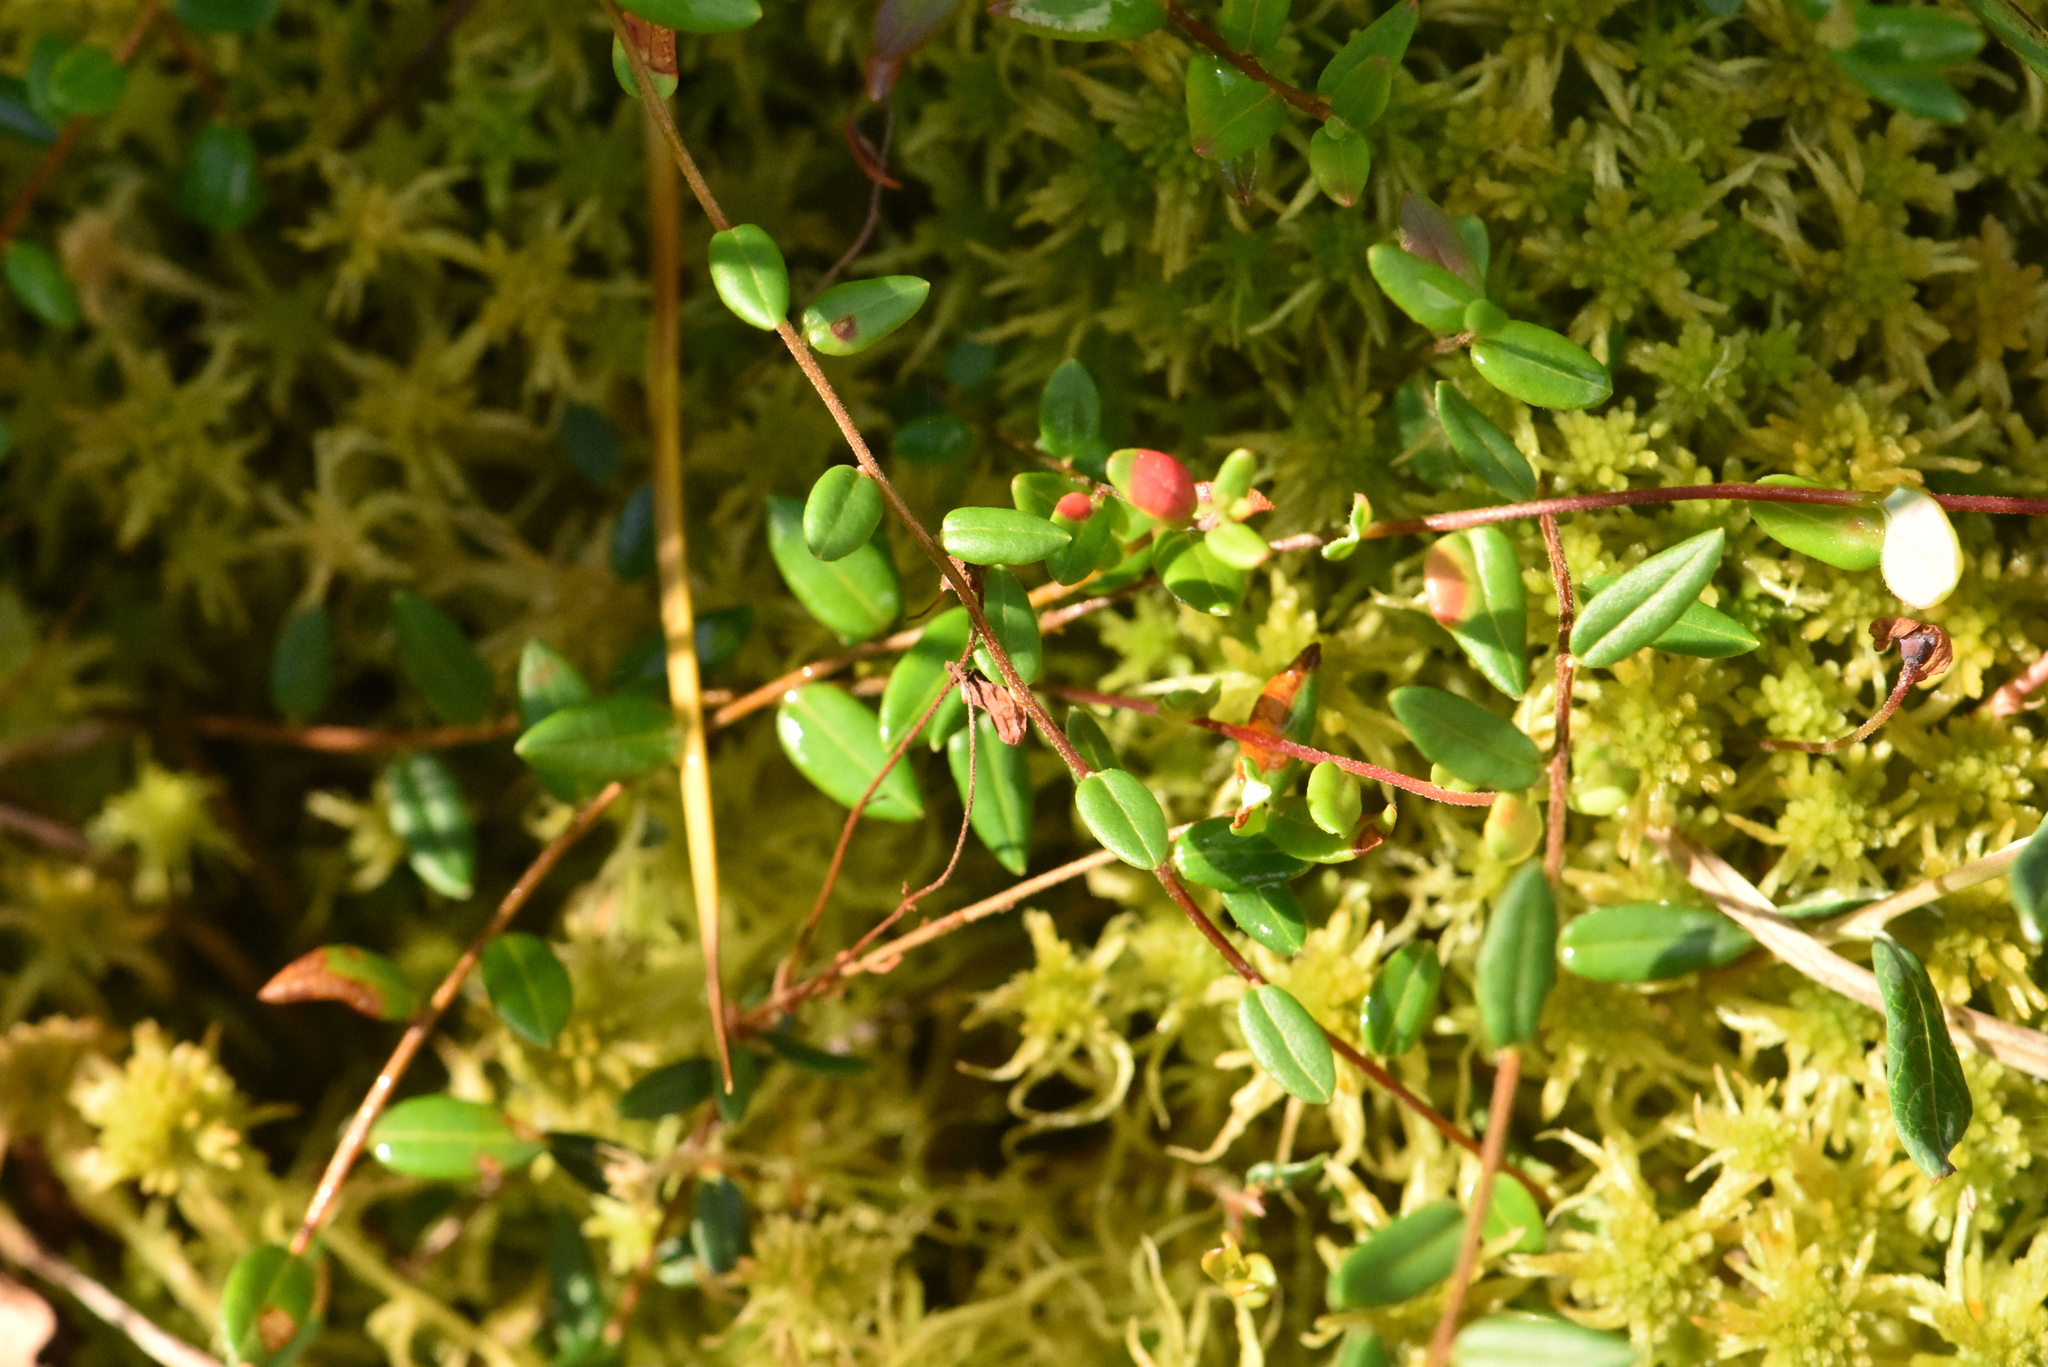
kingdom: Plantae
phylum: Tracheophyta
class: Magnoliopsida
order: Ericales
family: Ericaceae
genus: Vaccinium
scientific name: Vaccinium oxycoccos
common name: Cranberry
